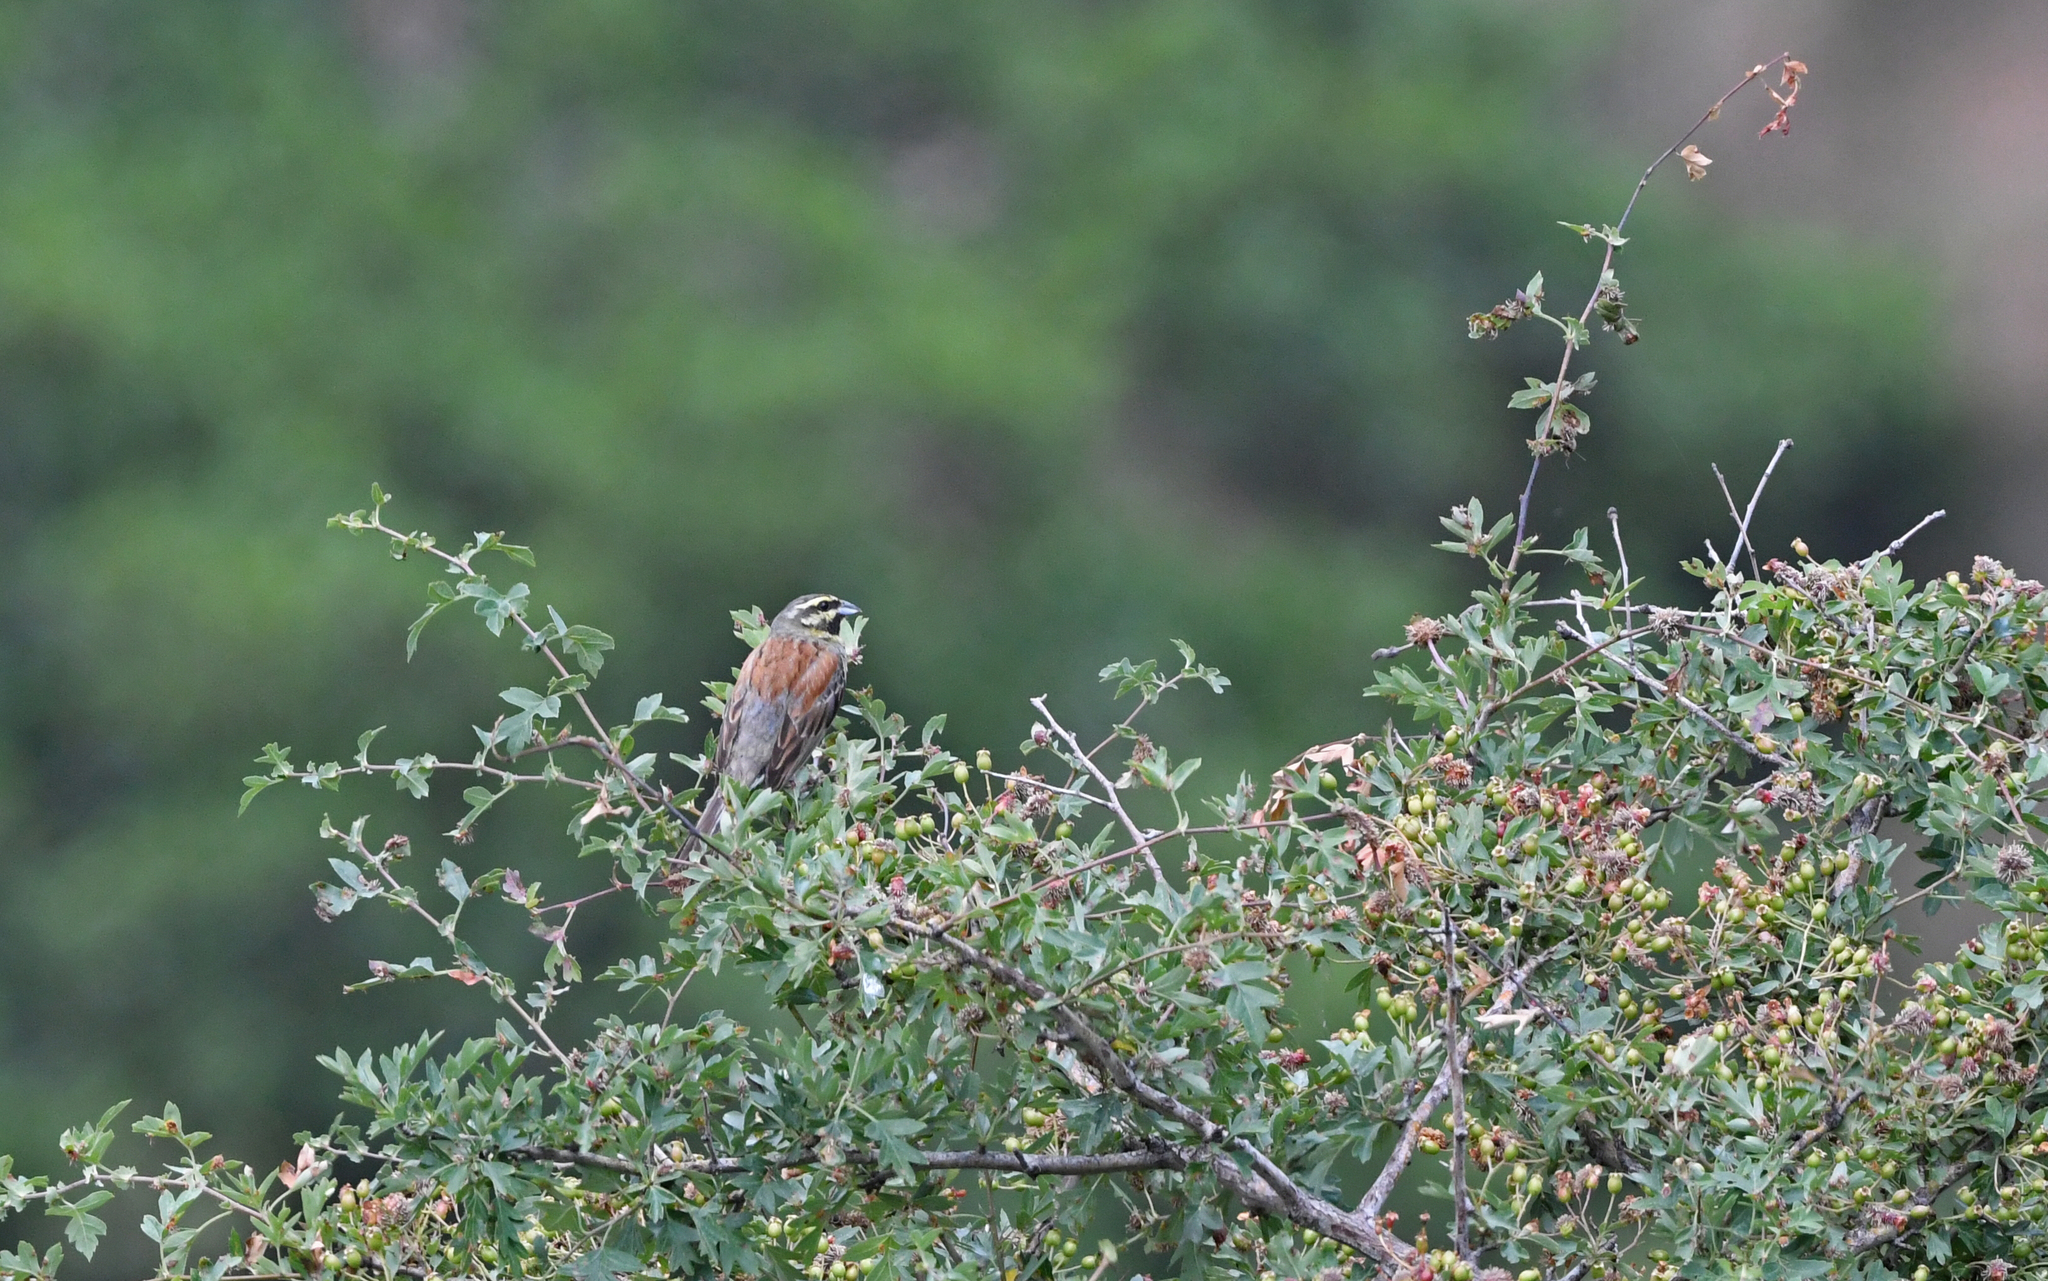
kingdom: Animalia
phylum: Chordata
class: Aves
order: Passeriformes
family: Emberizidae
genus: Emberiza
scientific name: Emberiza cirlus
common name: Cirl bunting
